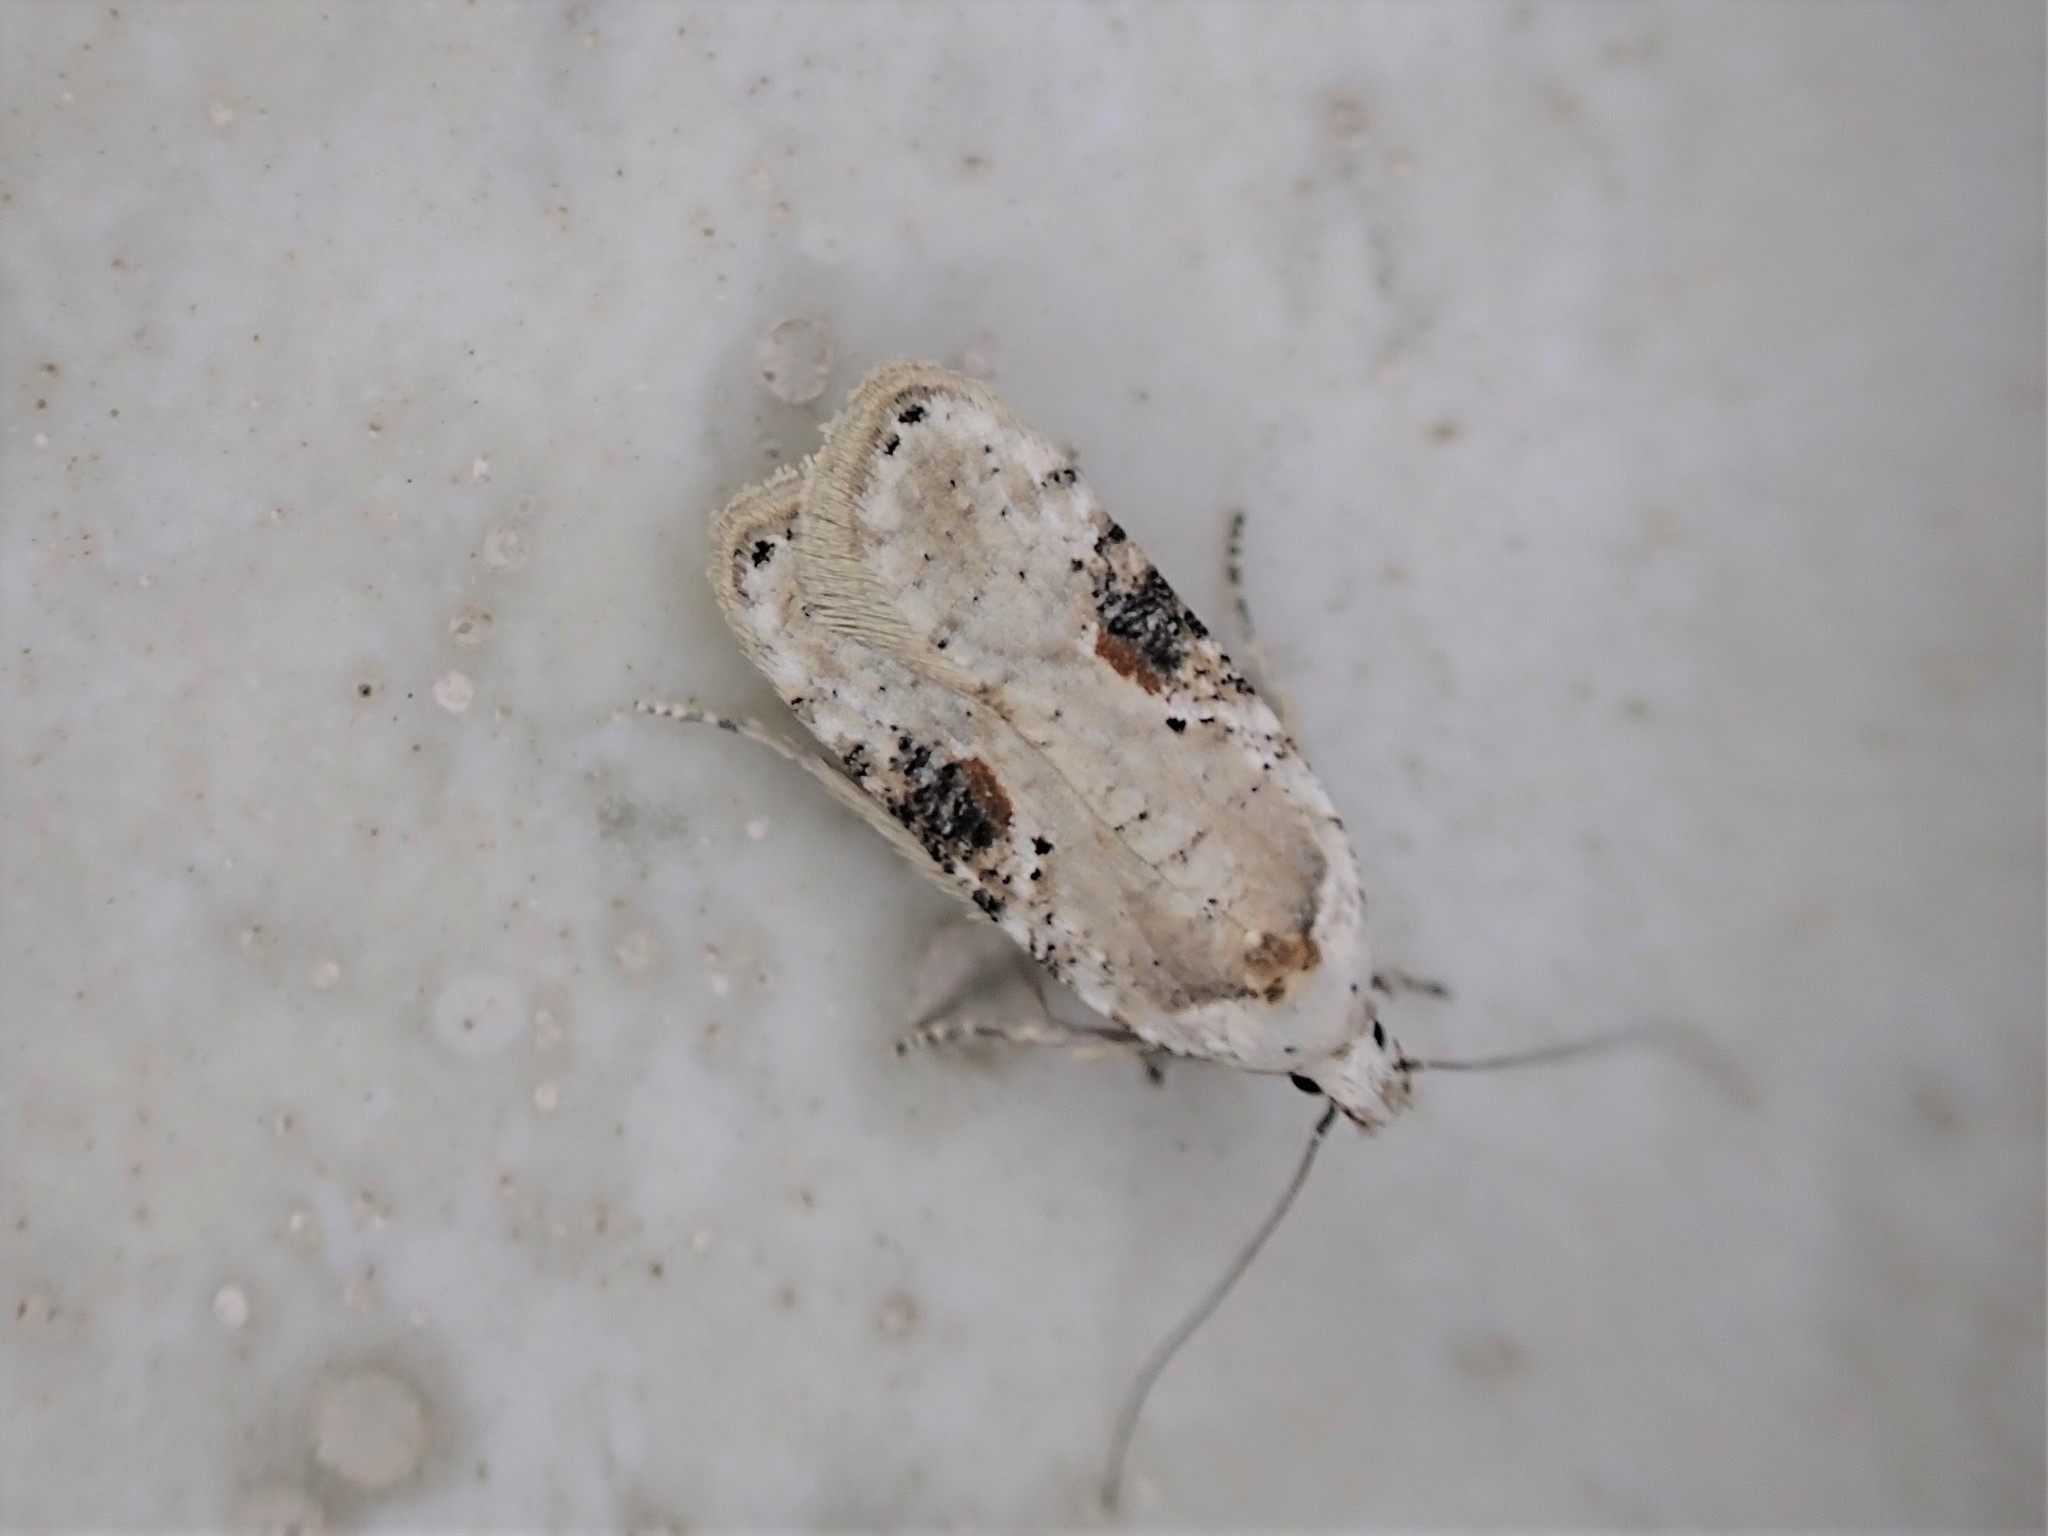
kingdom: Animalia
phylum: Arthropoda
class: Insecta
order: Lepidoptera
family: Depressariidae
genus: Agonopterix
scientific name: Agonopterix alstroemeriana
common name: Moth
